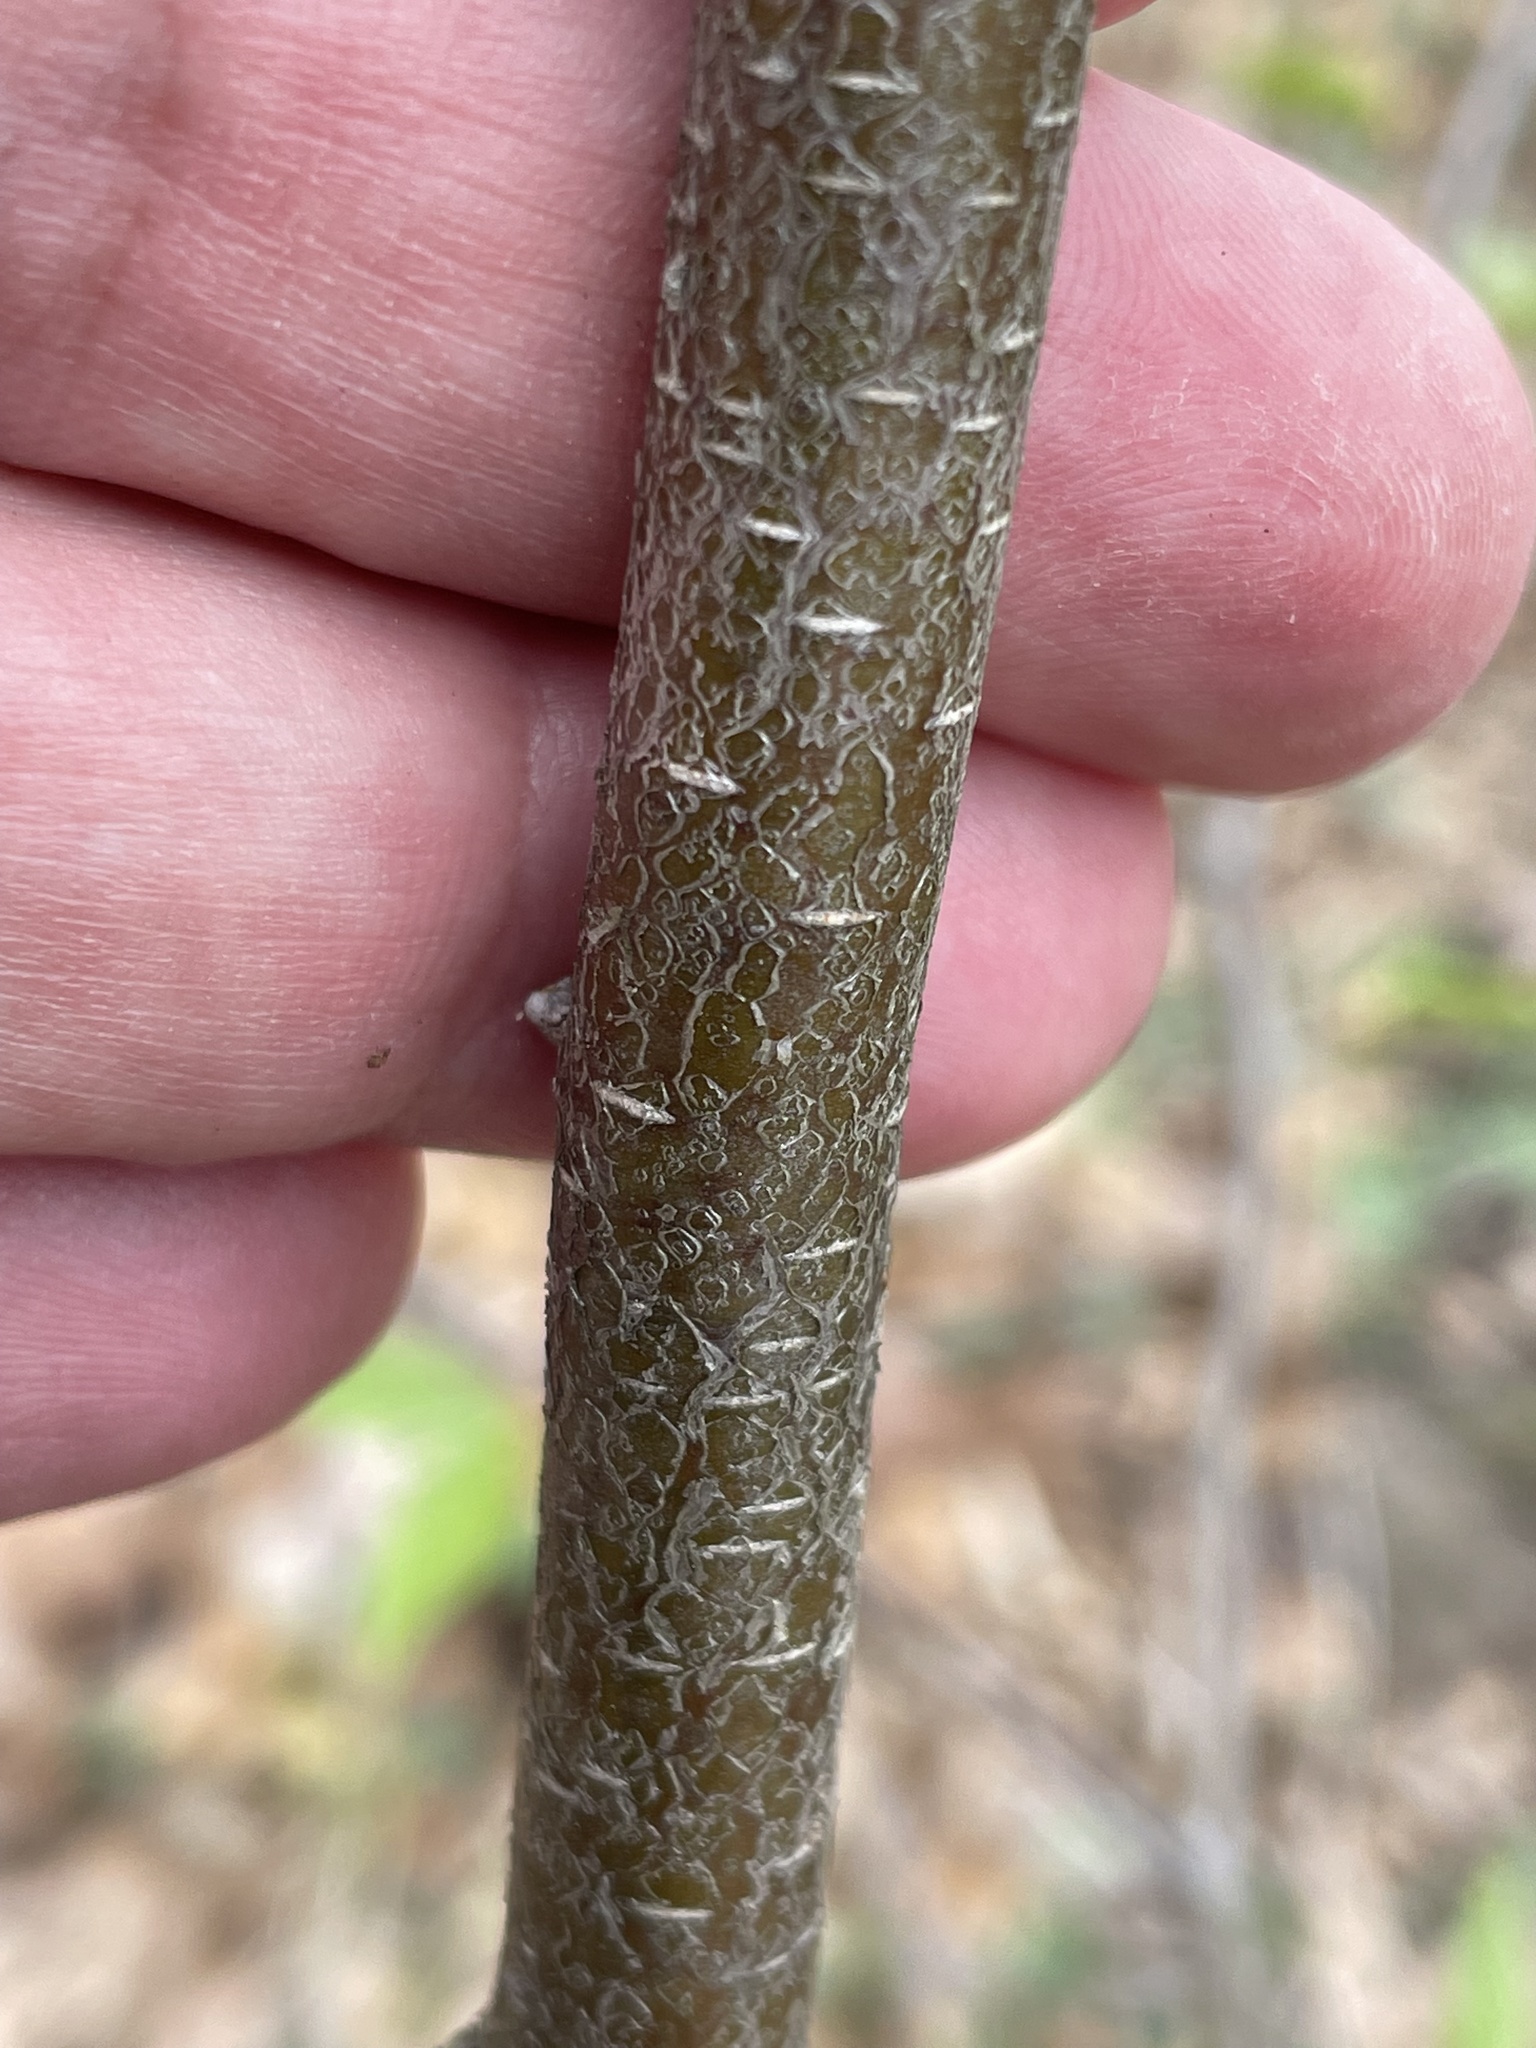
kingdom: Plantae
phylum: Tracheophyta
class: Magnoliopsida
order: Fagales
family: Betulaceae
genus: Betula
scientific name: Betula lenta
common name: Black birch
